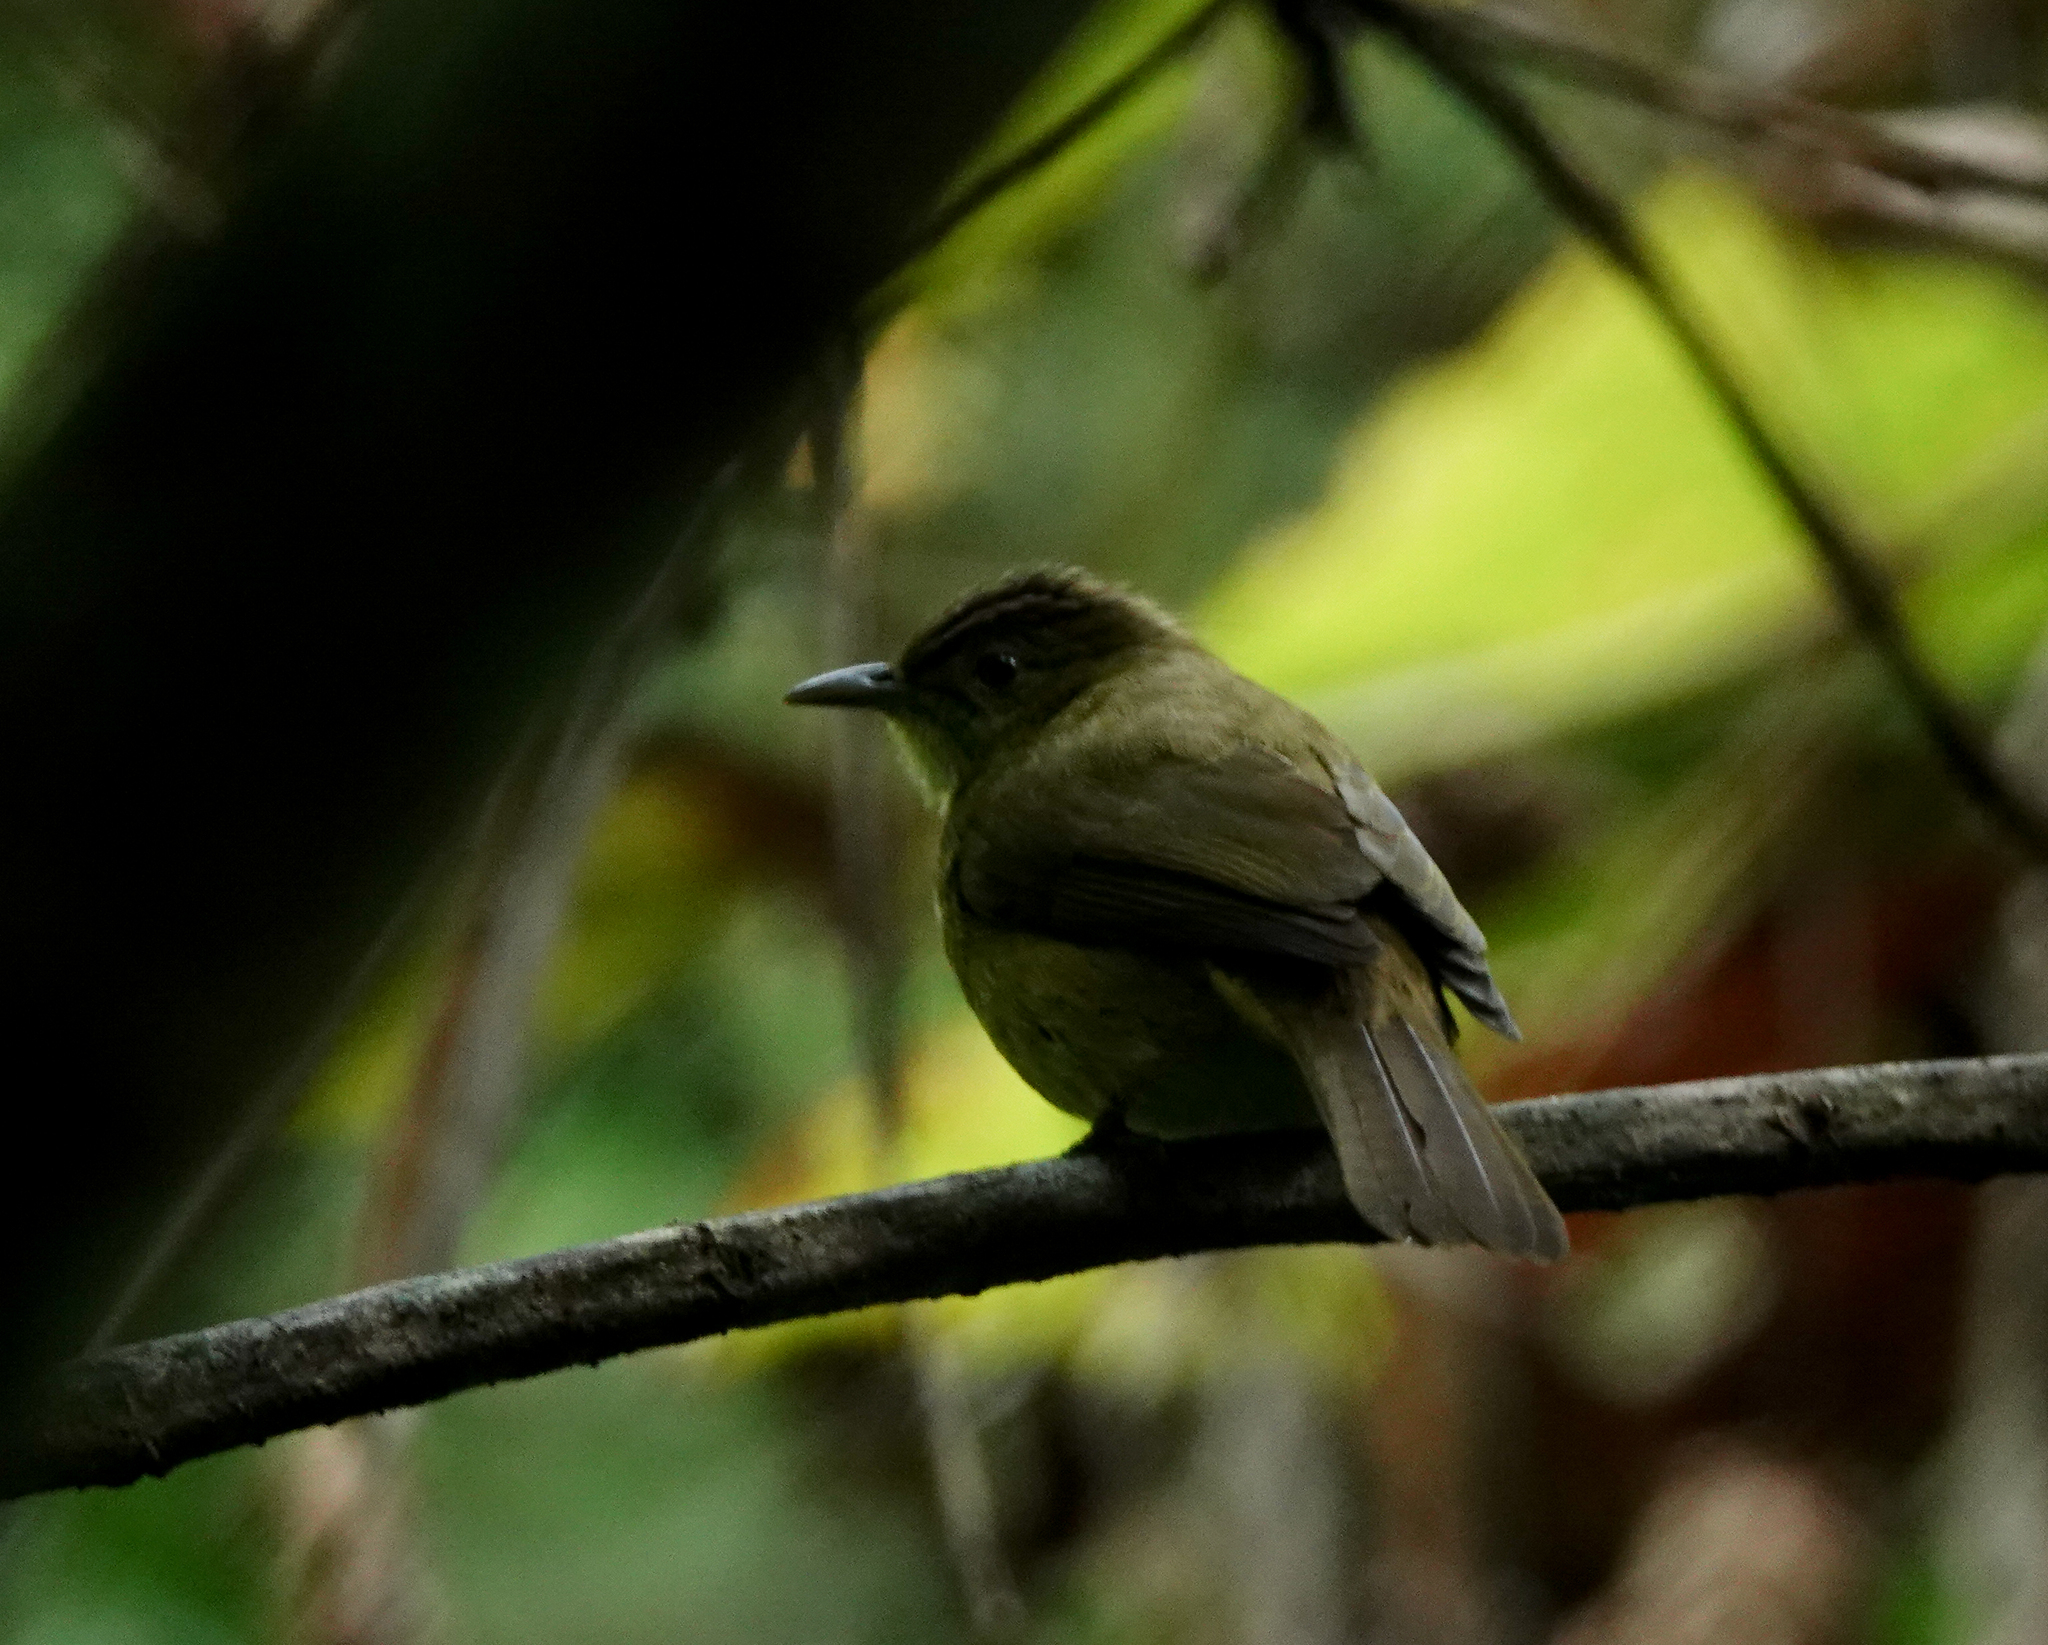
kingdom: Animalia
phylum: Chordata
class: Aves
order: Passeriformes
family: Pycnonotidae
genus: Iole
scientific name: Iole virescens
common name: Olive bulbul
